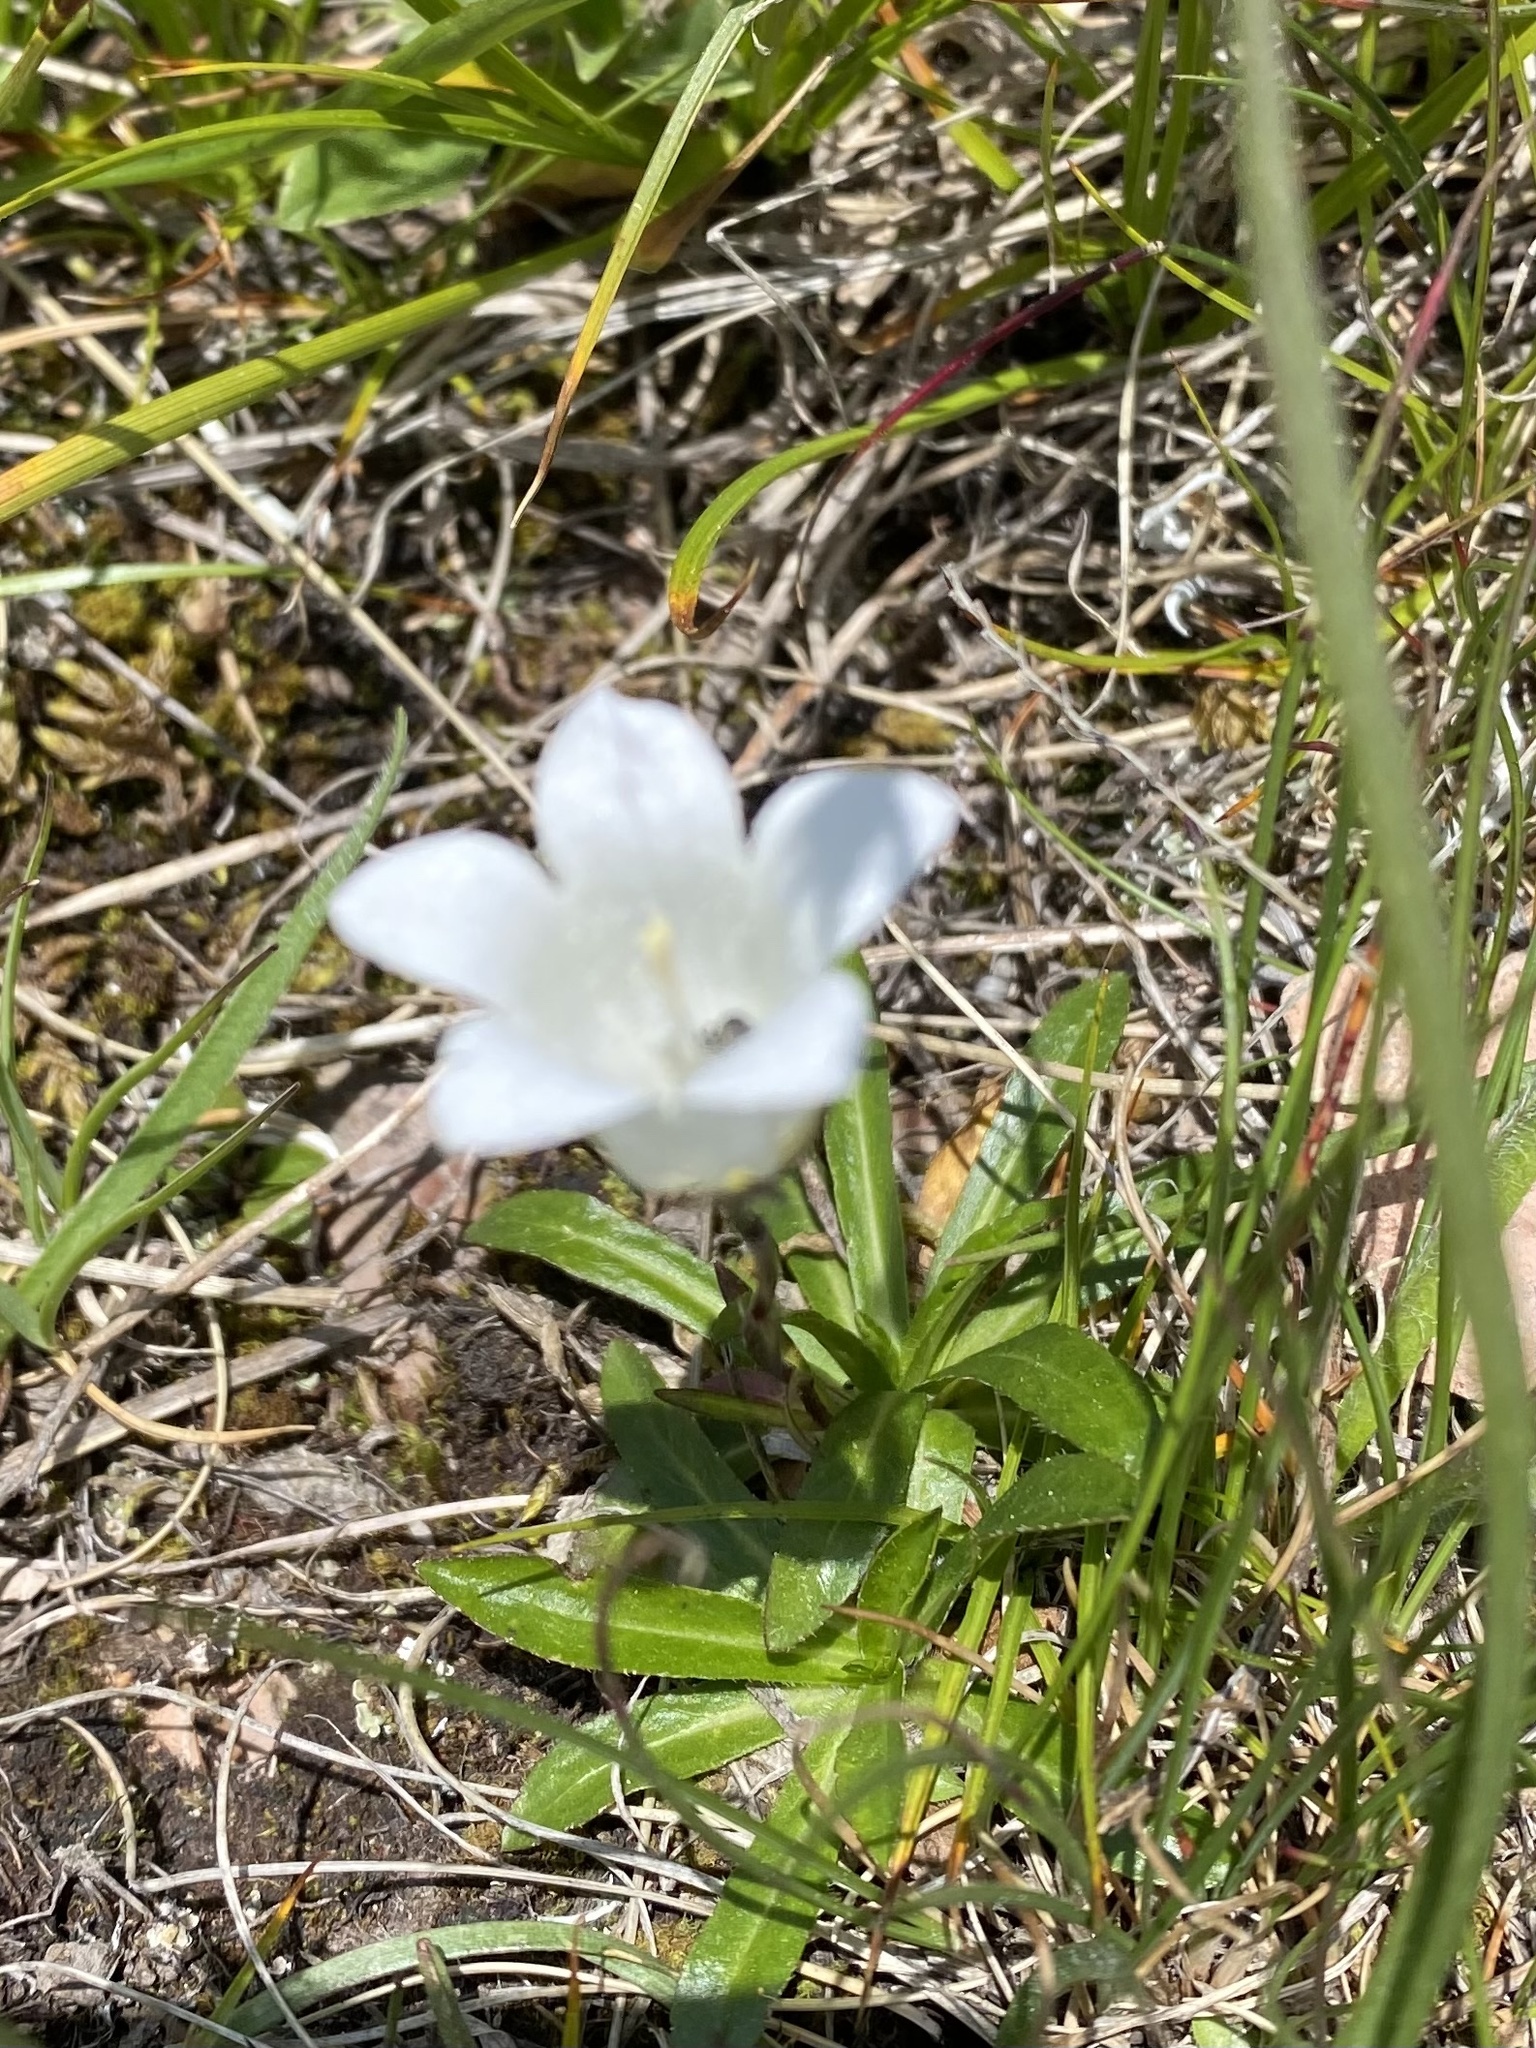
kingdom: Plantae
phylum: Tracheophyta
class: Magnoliopsida
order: Asterales
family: Campanulaceae
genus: Campanula
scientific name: Campanula ciliata
